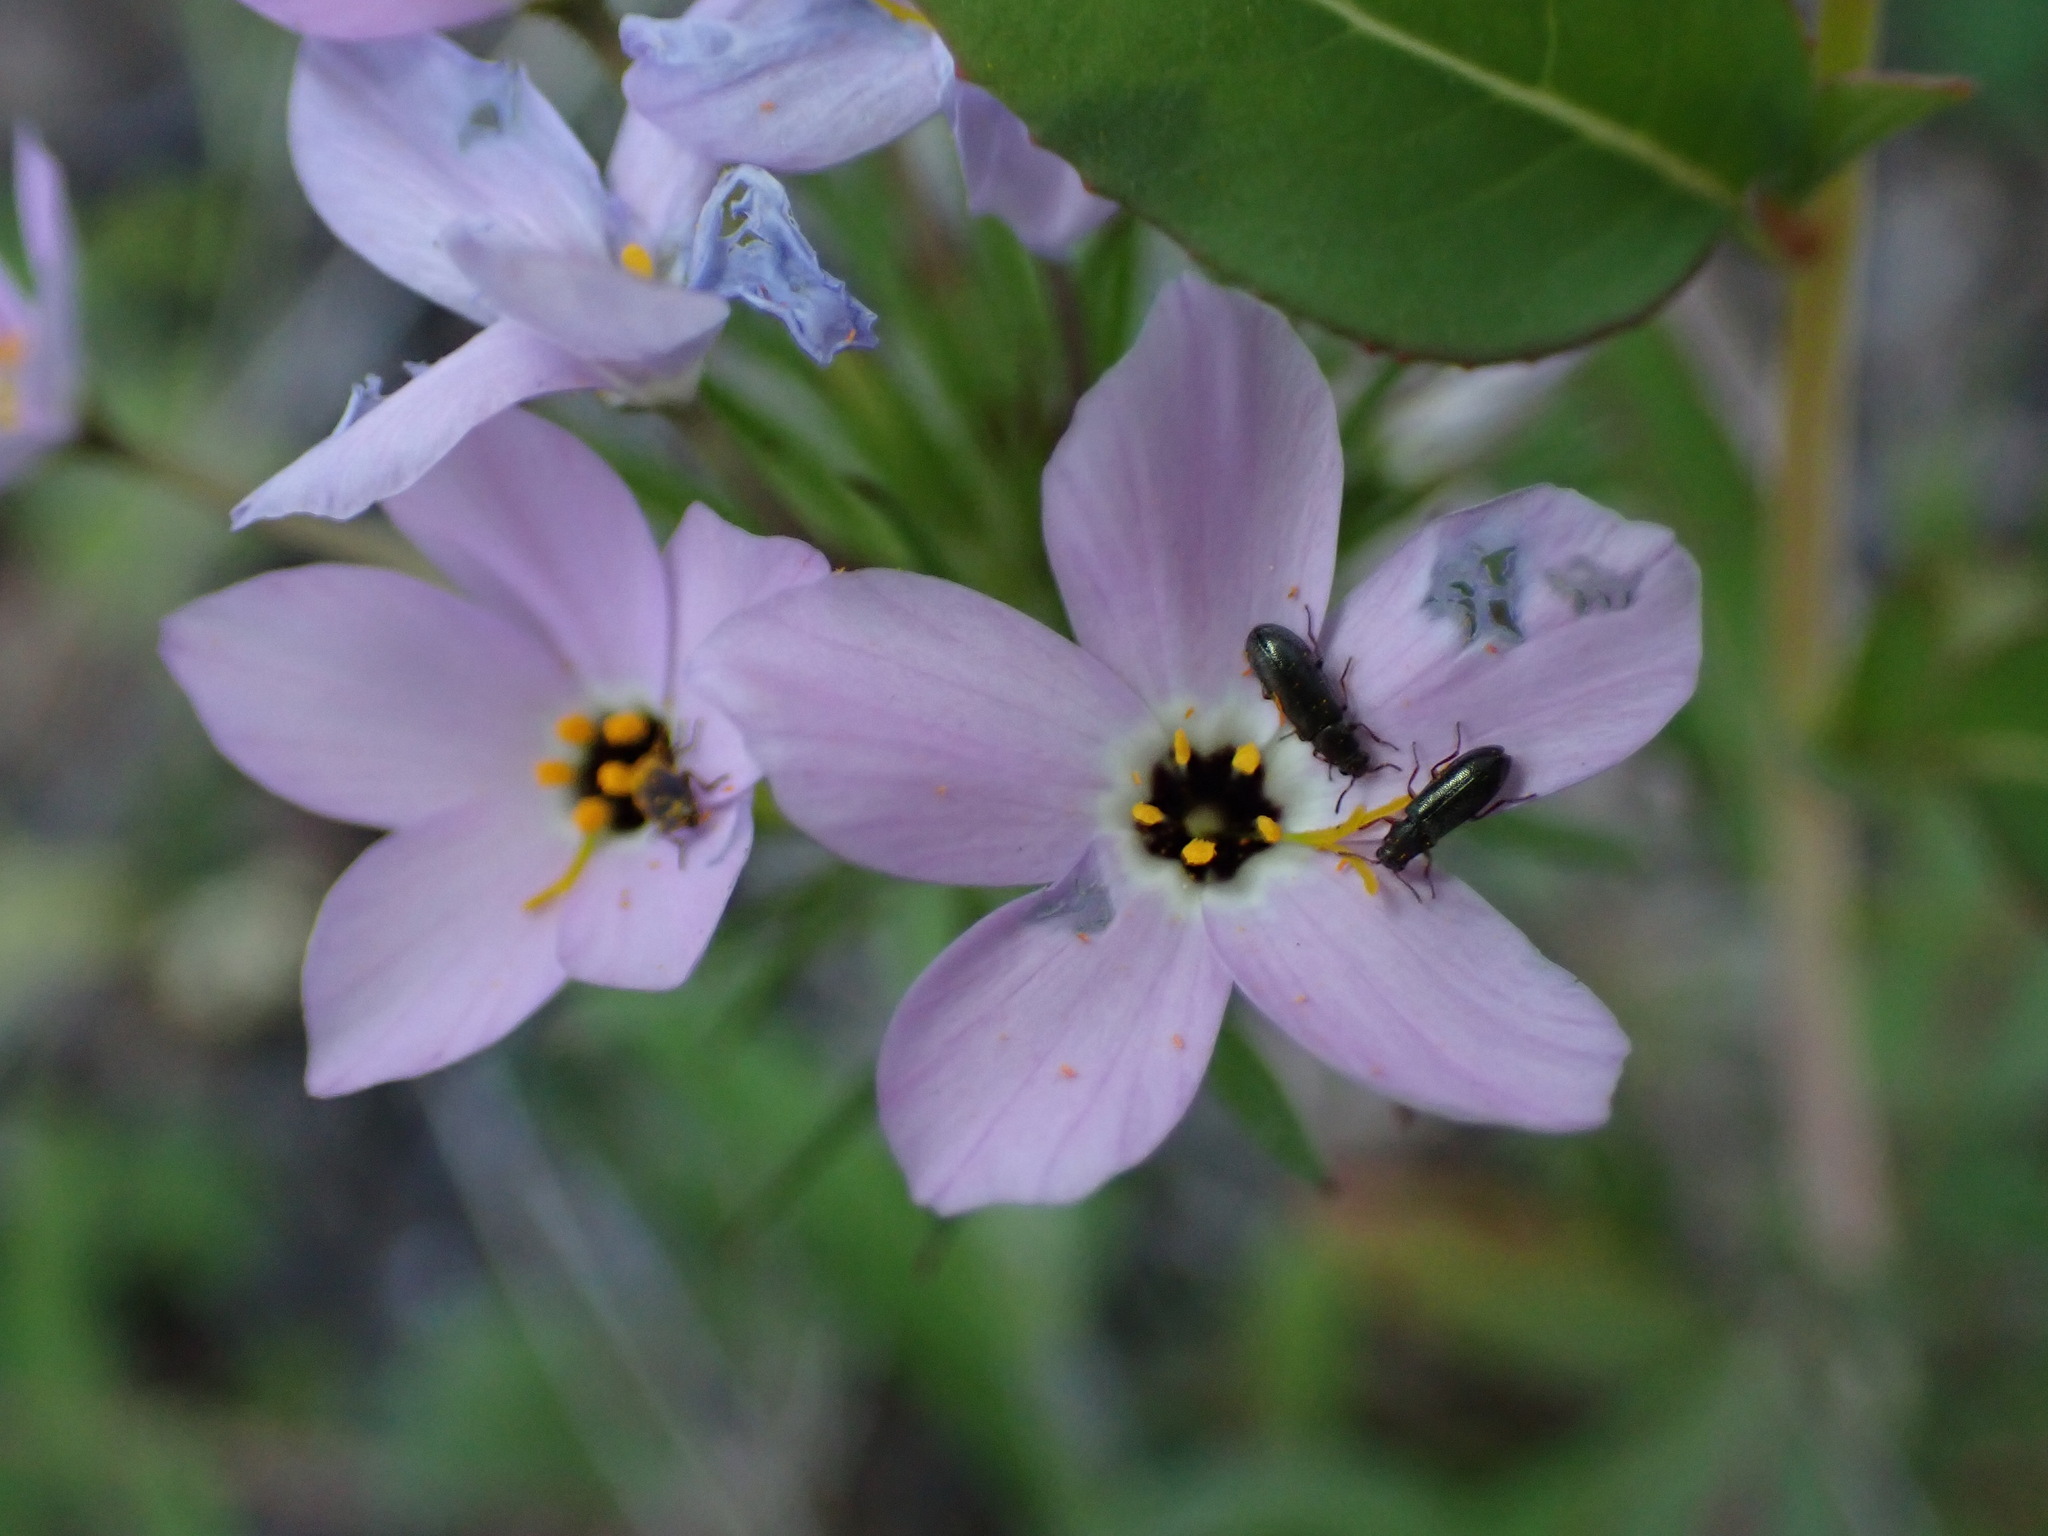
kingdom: Plantae
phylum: Tracheophyta
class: Magnoliopsida
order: Ericales
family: Polemoniaceae
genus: Leptosiphon
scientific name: Leptosiphon androsaceus
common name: False babystars
